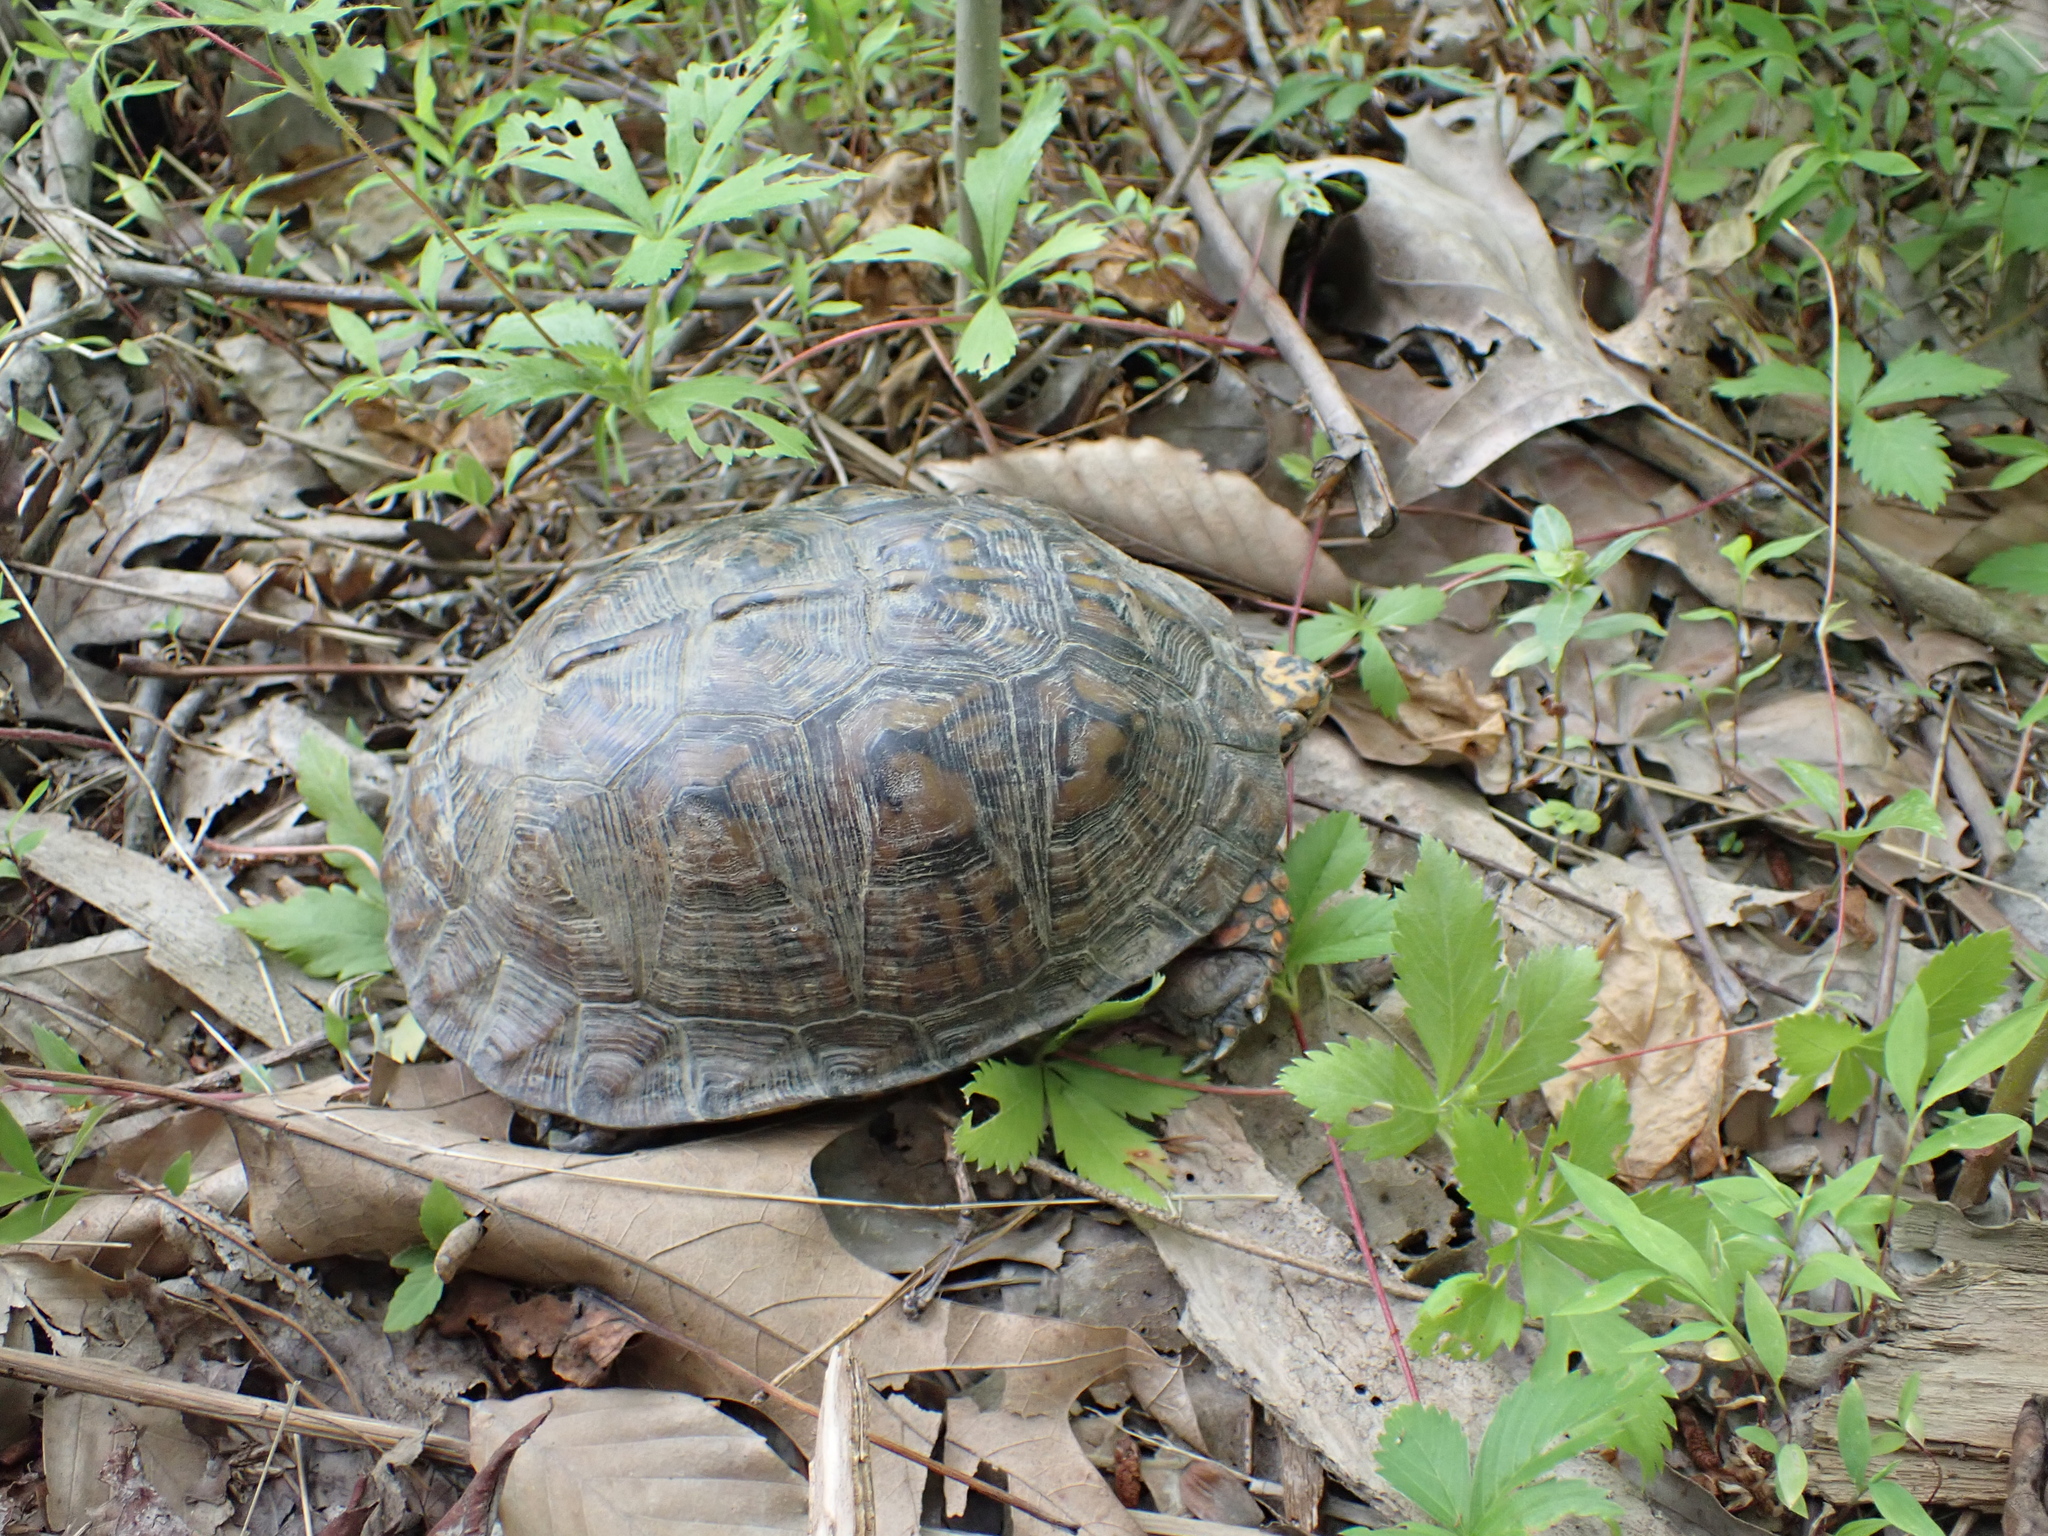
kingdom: Animalia
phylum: Chordata
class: Testudines
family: Emydidae
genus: Terrapene
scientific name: Terrapene carolina
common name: Common box turtle
